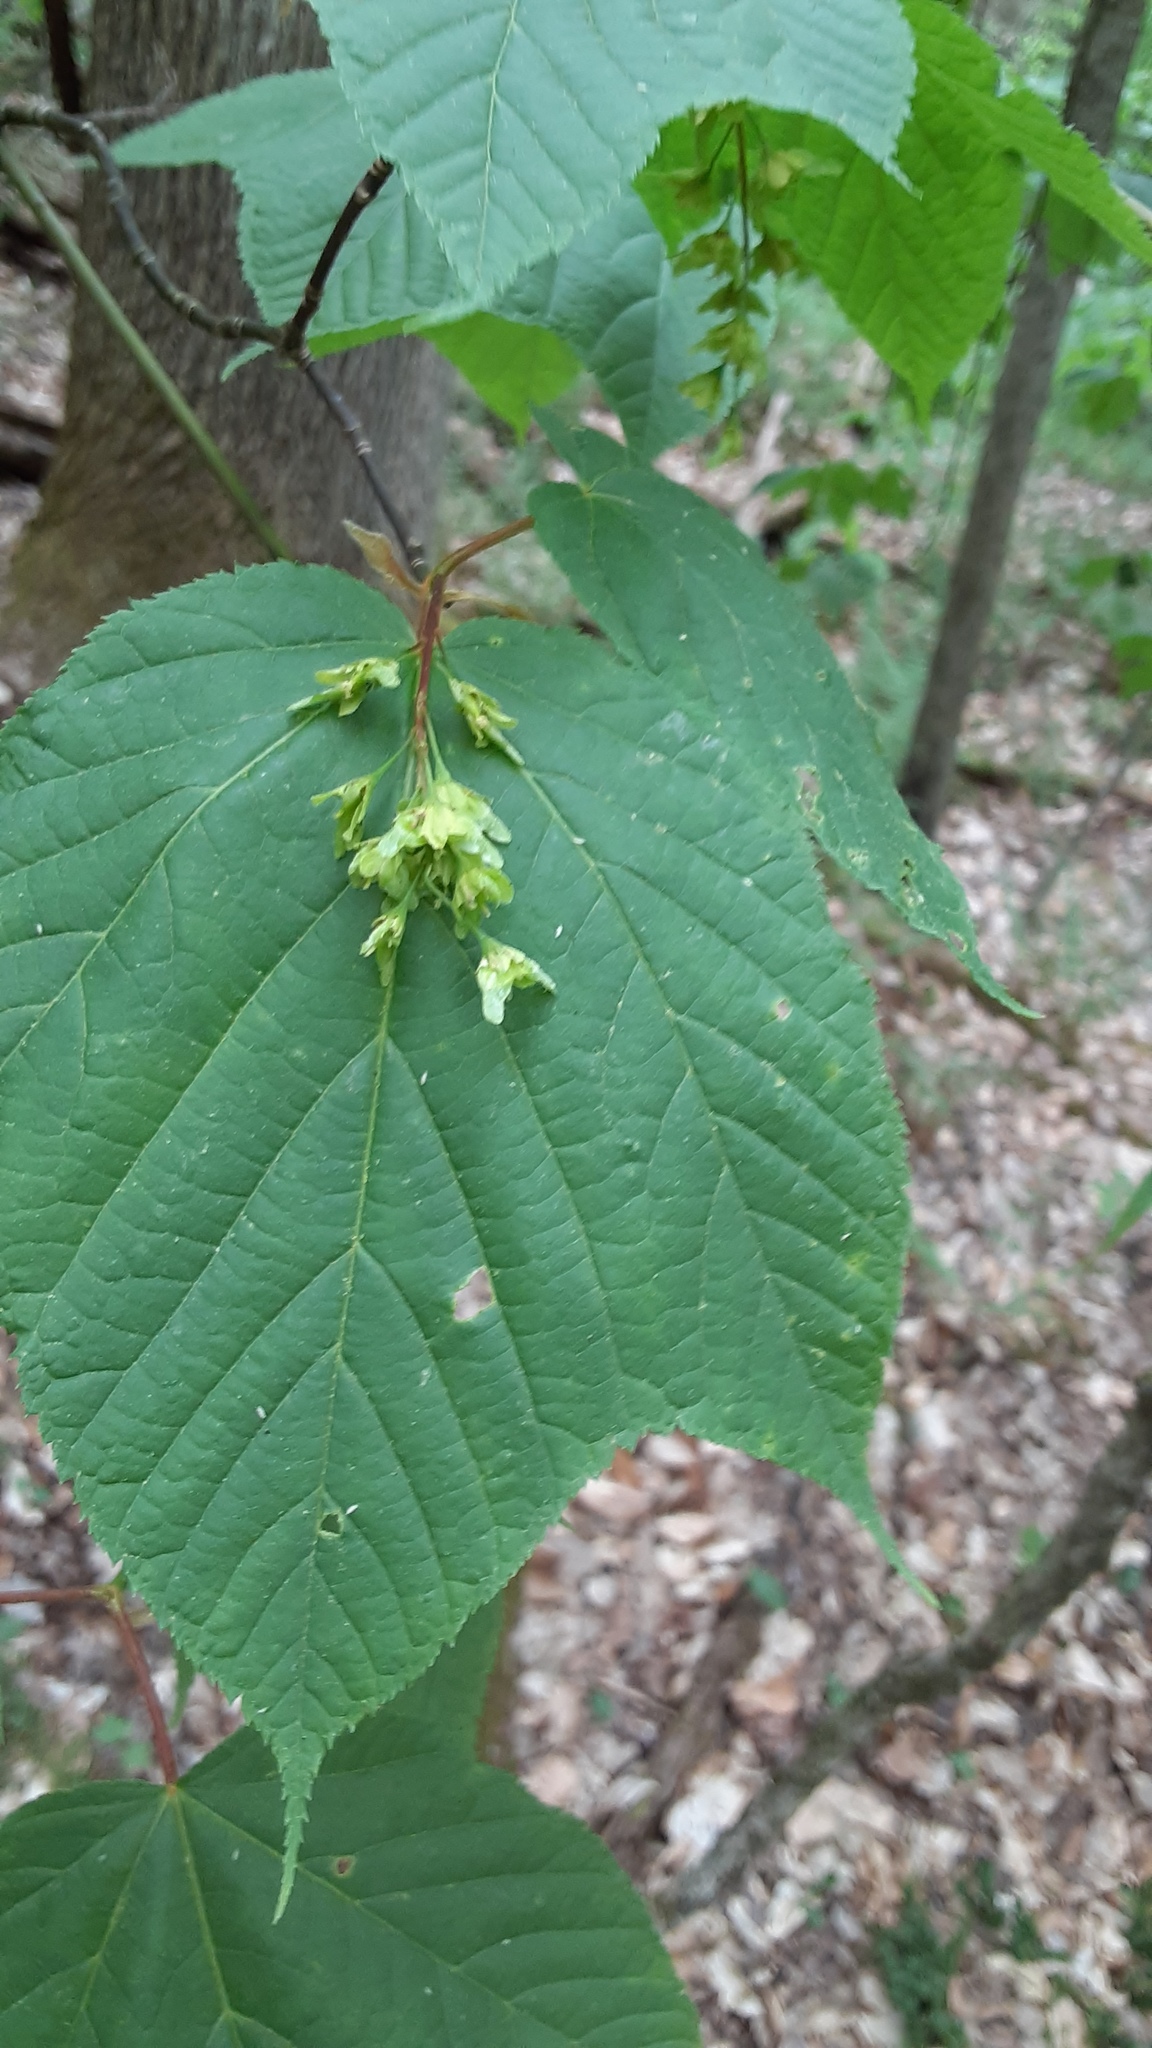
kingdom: Plantae
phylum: Tracheophyta
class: Magnoliopsida
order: Sapindales
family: Sapindaceae
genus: Acer
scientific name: Acer pensylvanicum
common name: Moosewood
